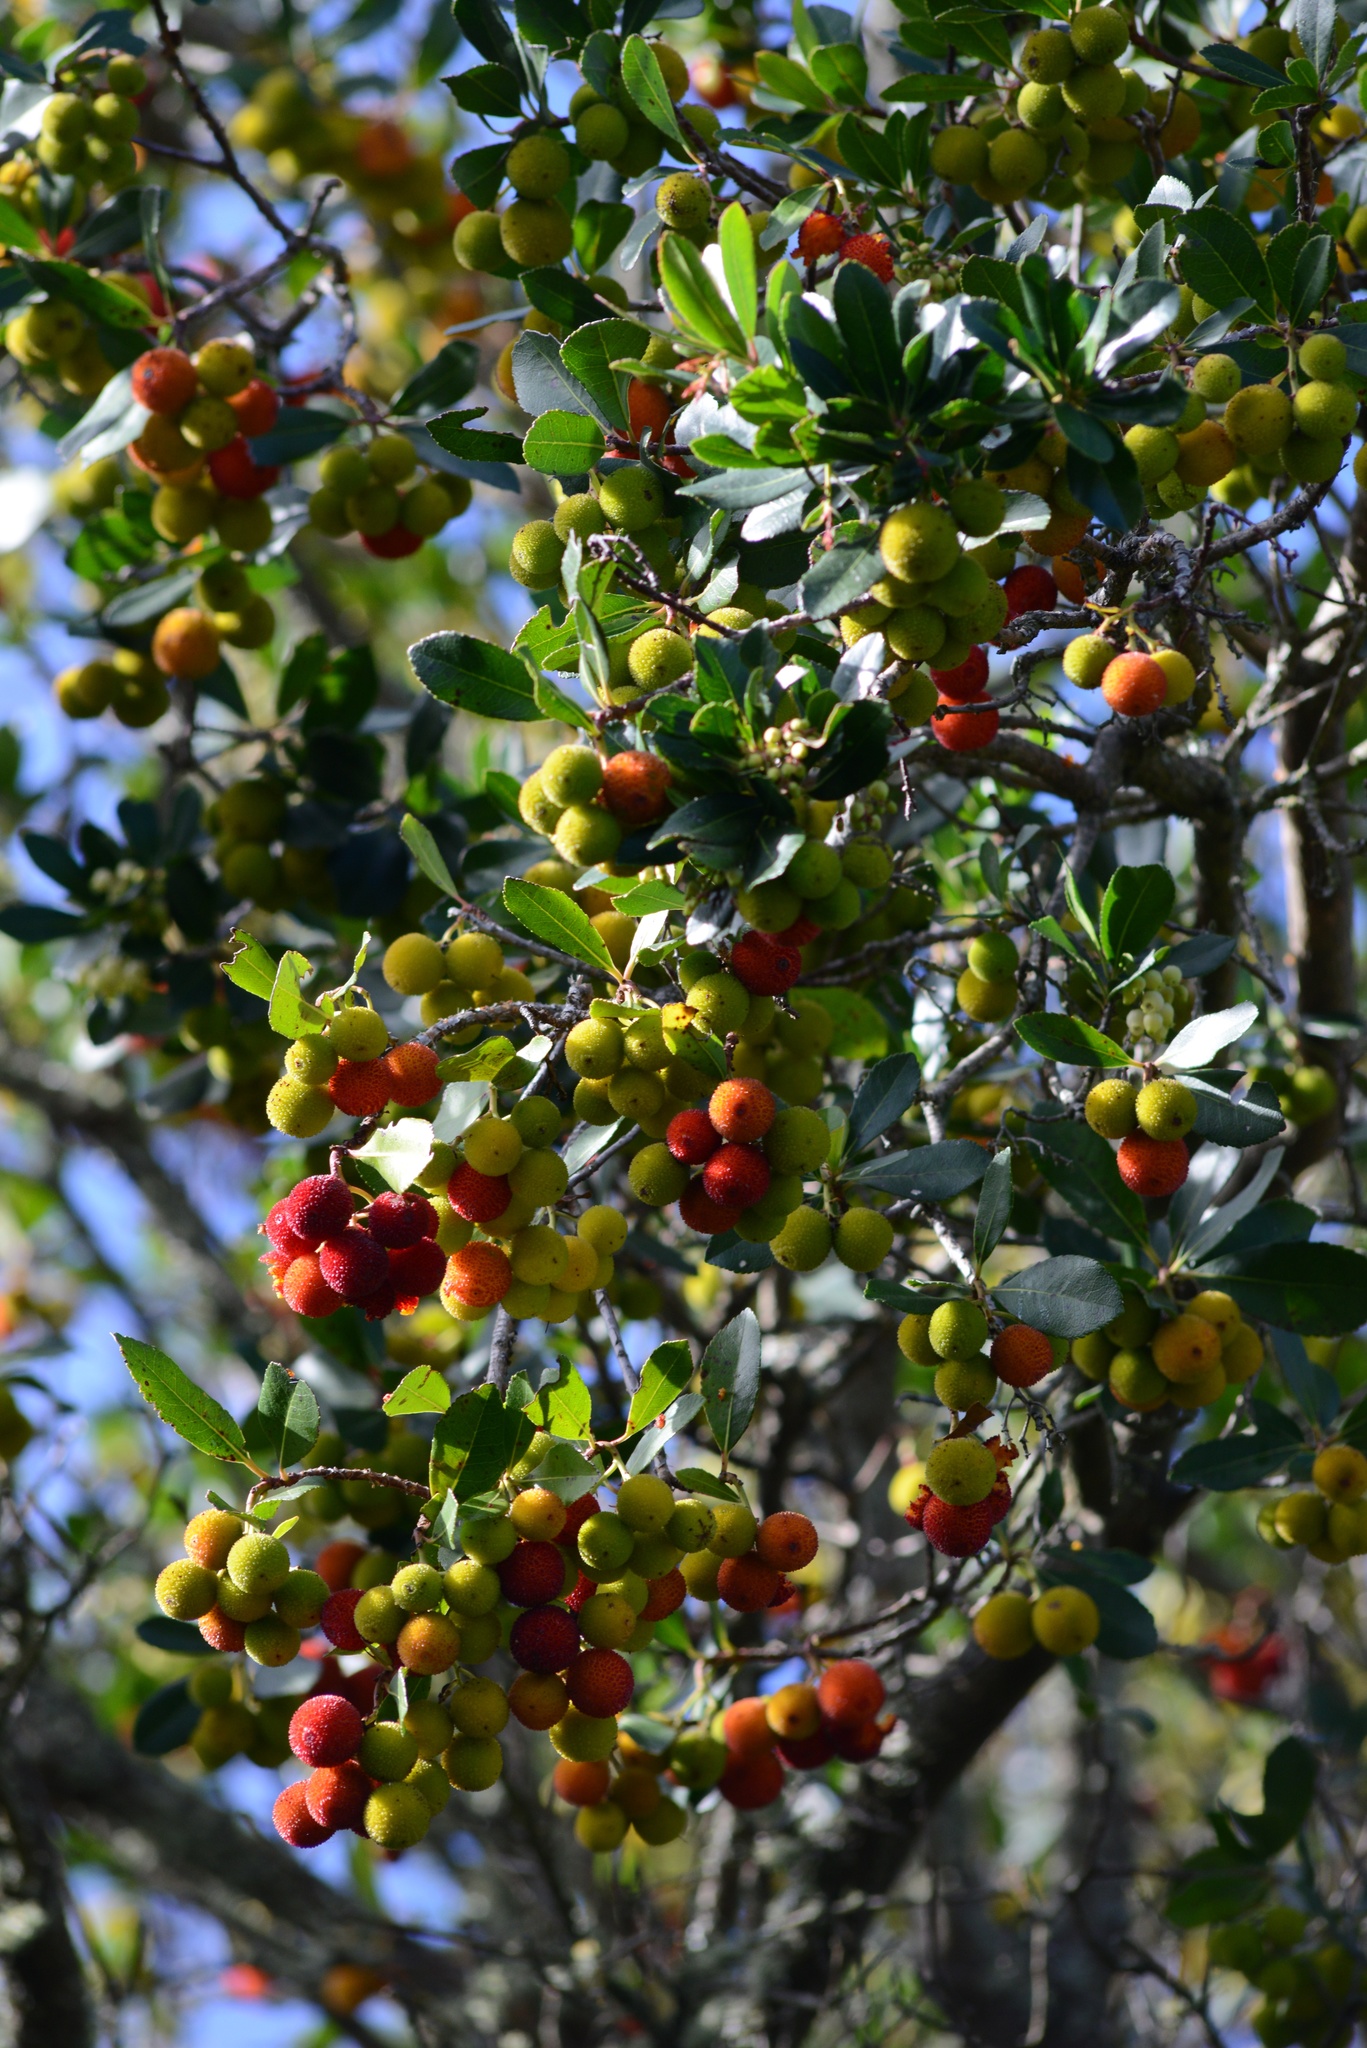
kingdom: Plantae
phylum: Tracheophyta
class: Magnoliopsida
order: Ericales
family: Ericaceae
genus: Arbutus
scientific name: Arbutus unedo
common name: Strawberry-tree
